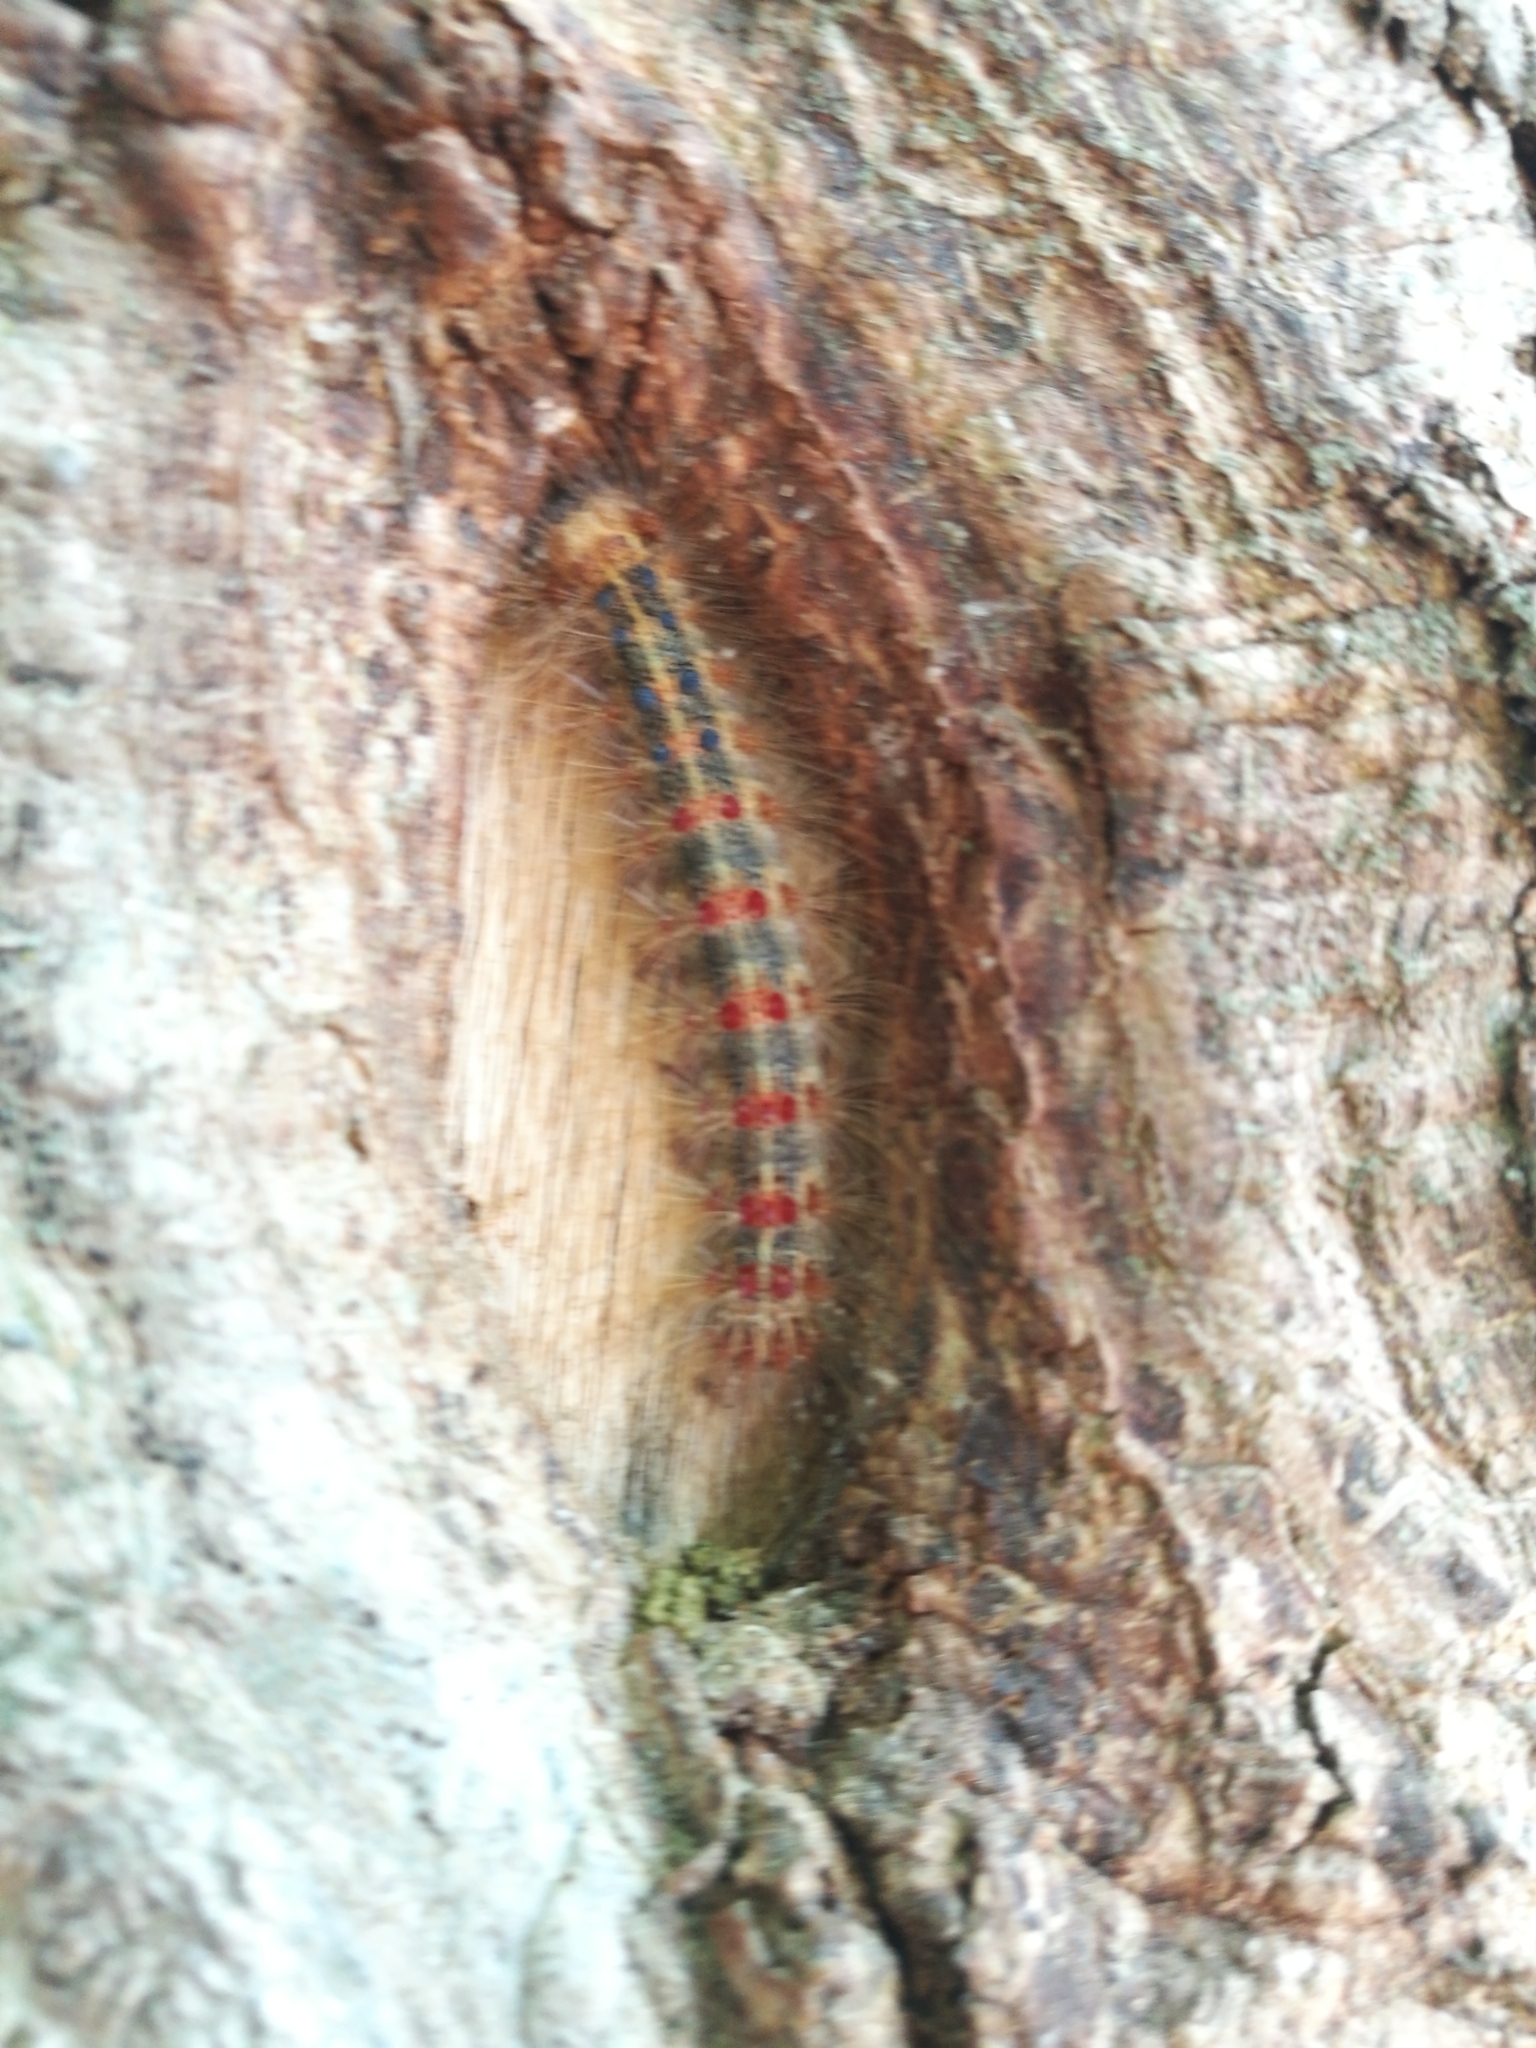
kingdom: Animalia
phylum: Arthropoda
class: Insecta
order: Lepidoptera
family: Erebidae
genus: Lymantria
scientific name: Lymantria dispar
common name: Gypsy moth
